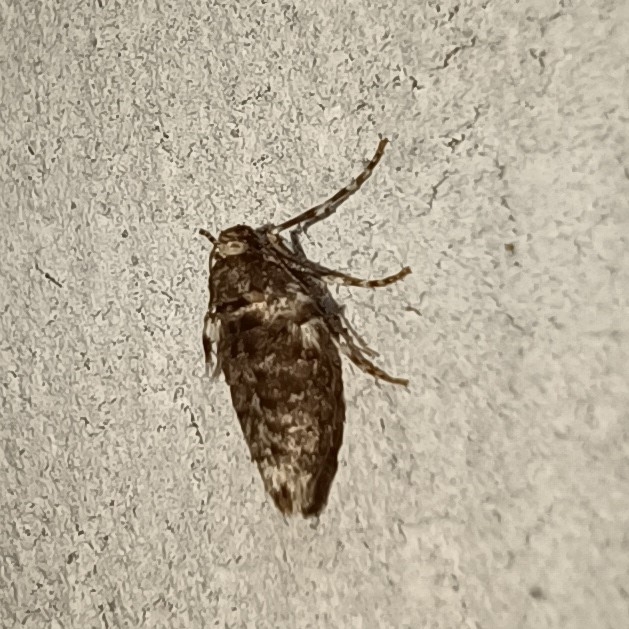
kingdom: Animalia
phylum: Arthropoda
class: Insecta
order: Lepidoptera
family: Geometridae
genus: Operophtera
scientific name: Operophtera brumata
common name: Winter moth
